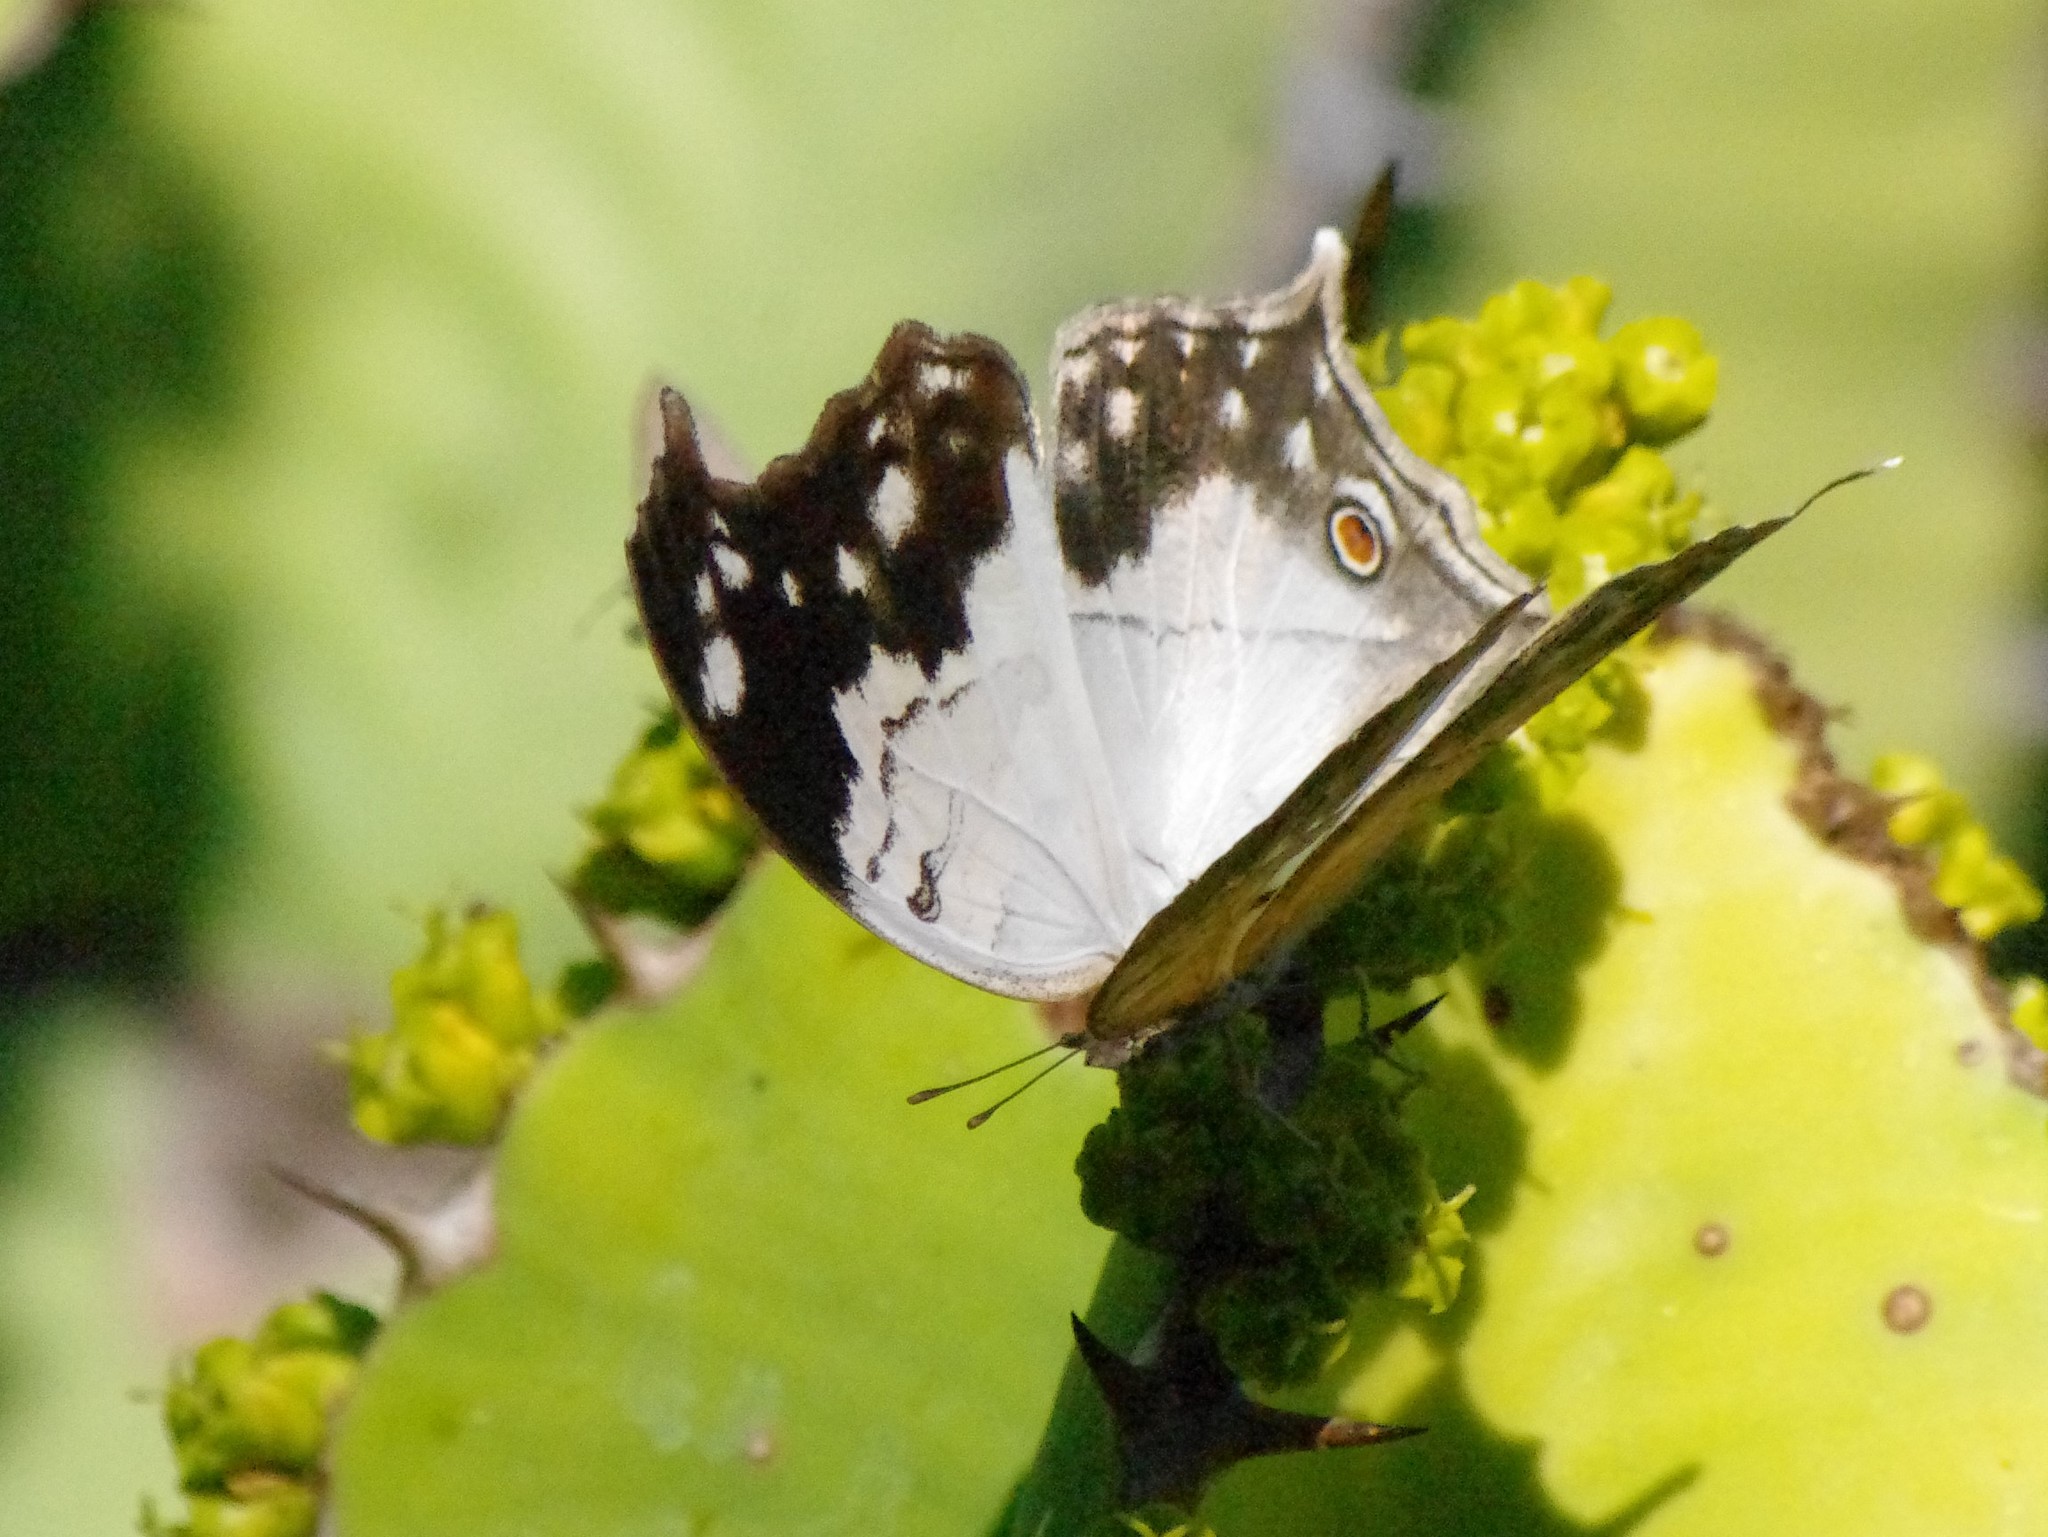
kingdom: Animalia
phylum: Arthropoda
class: Insecta
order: Lepidoptera
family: Nymphalidae
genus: Salamis
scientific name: Salamis
